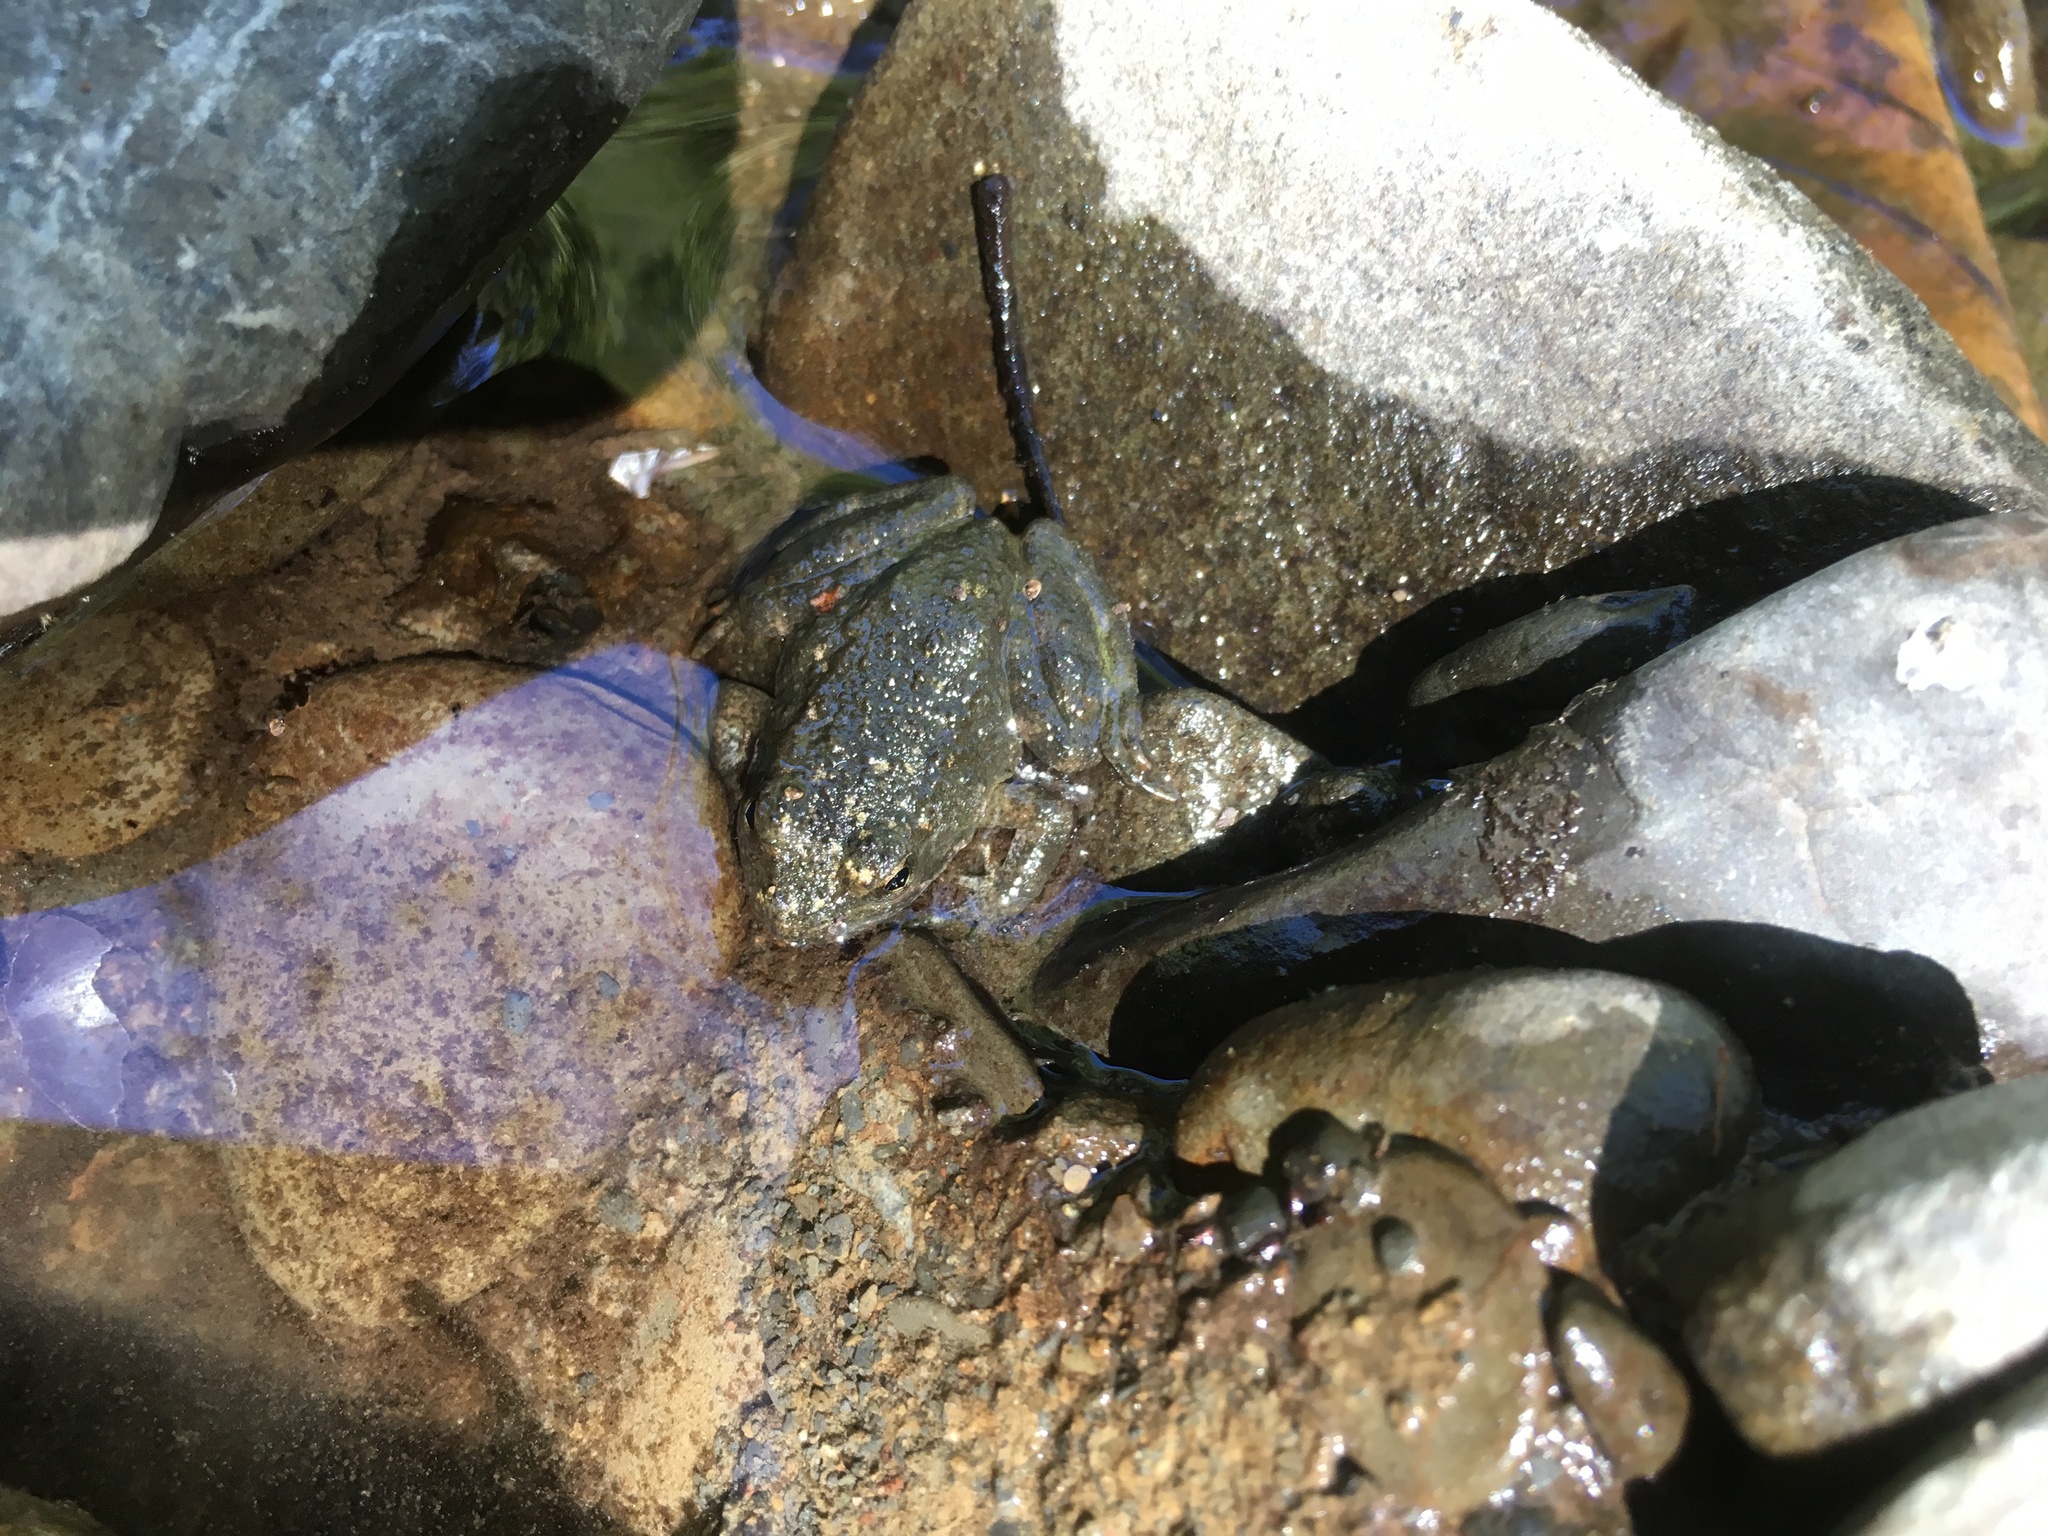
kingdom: Animalia
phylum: Chordata
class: Amphibia
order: Anura
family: Ranidae
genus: Rana
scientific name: Rana boylii
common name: Foothill yellow-legged frog
